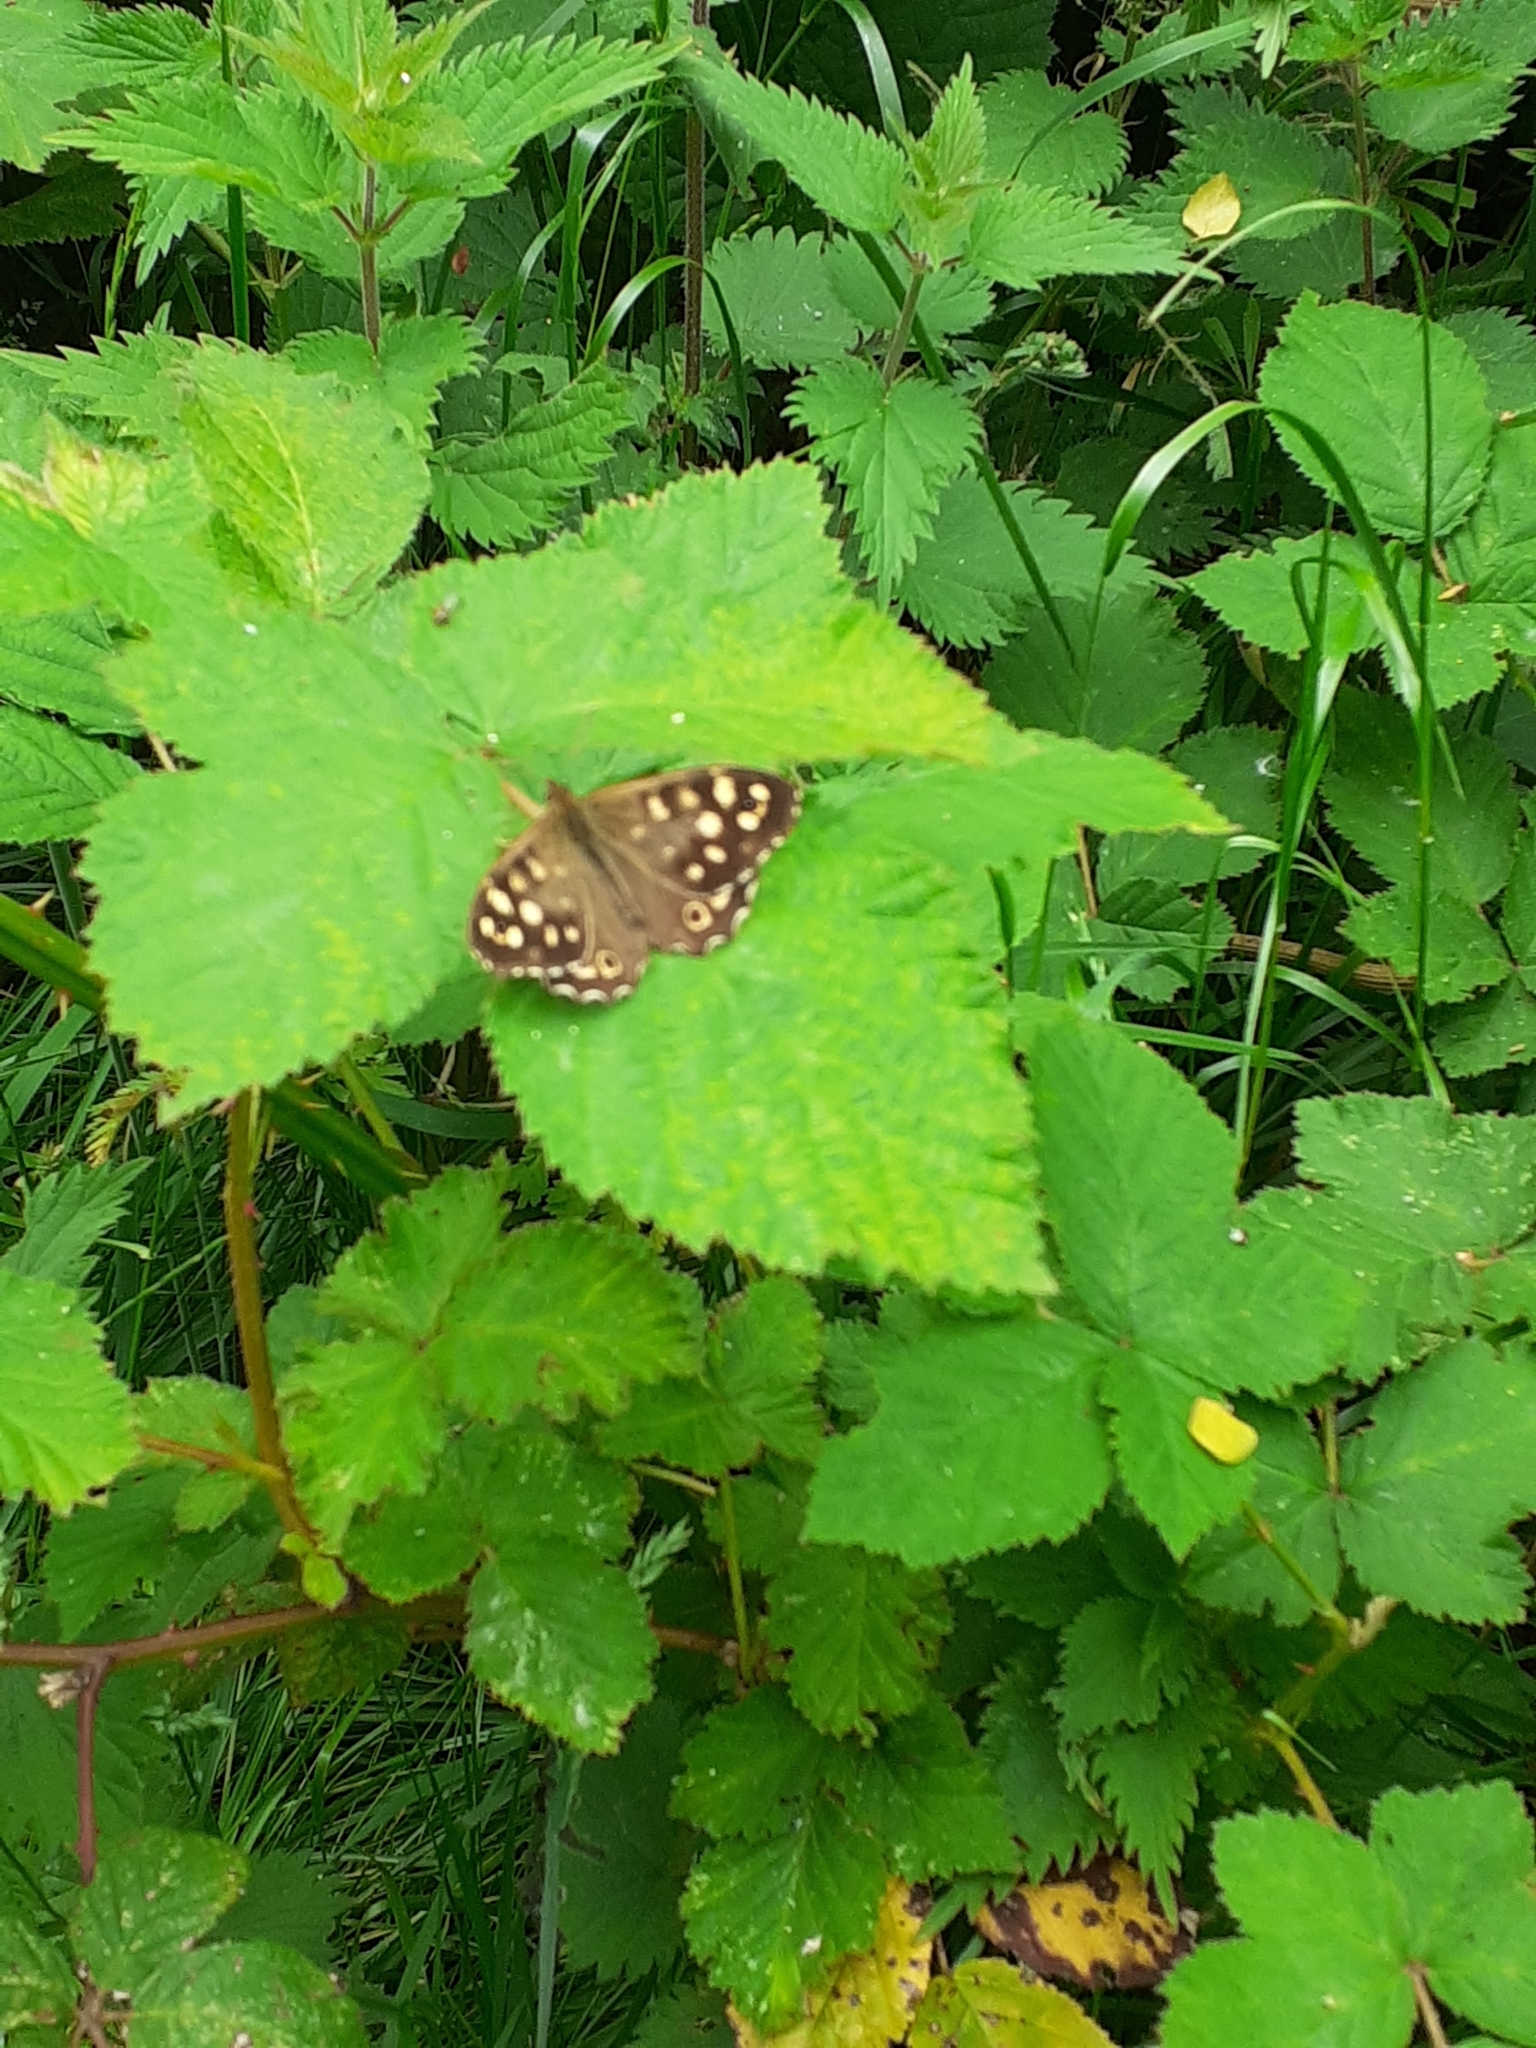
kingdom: Animalia
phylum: Arthropoda
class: Insecta
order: Lepidoptera
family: Nymphalidae
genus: Pararge
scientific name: Pararge aegeria
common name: Speckled wood
